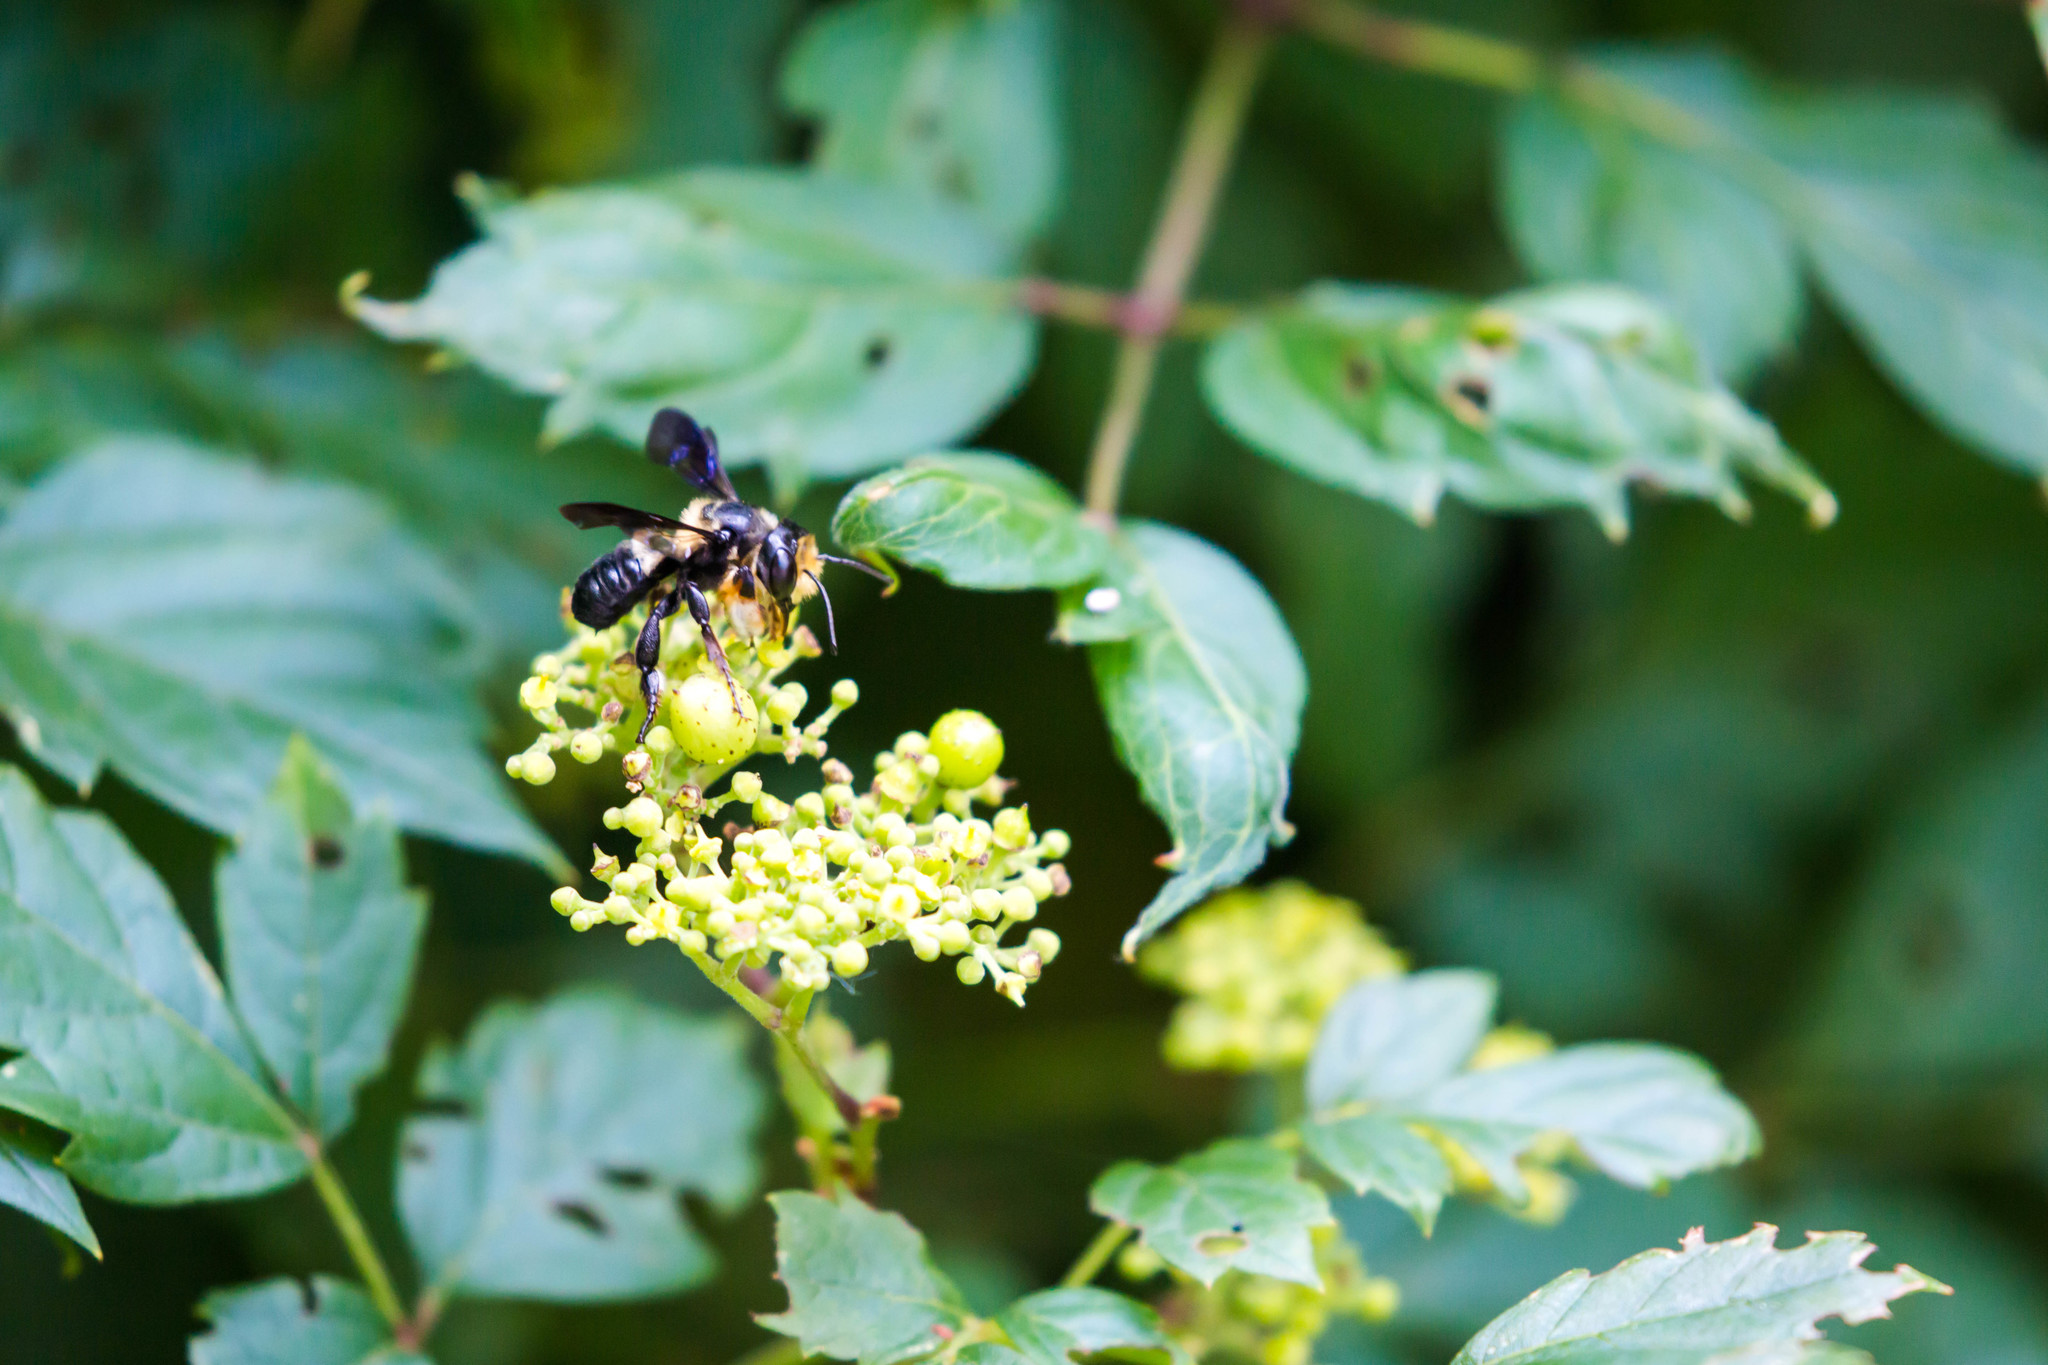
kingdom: Animalia
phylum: Arthropoda
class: Insecta
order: Hymenoptera
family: Megachilidae
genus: Megachile
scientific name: Megachile xylocopoides
